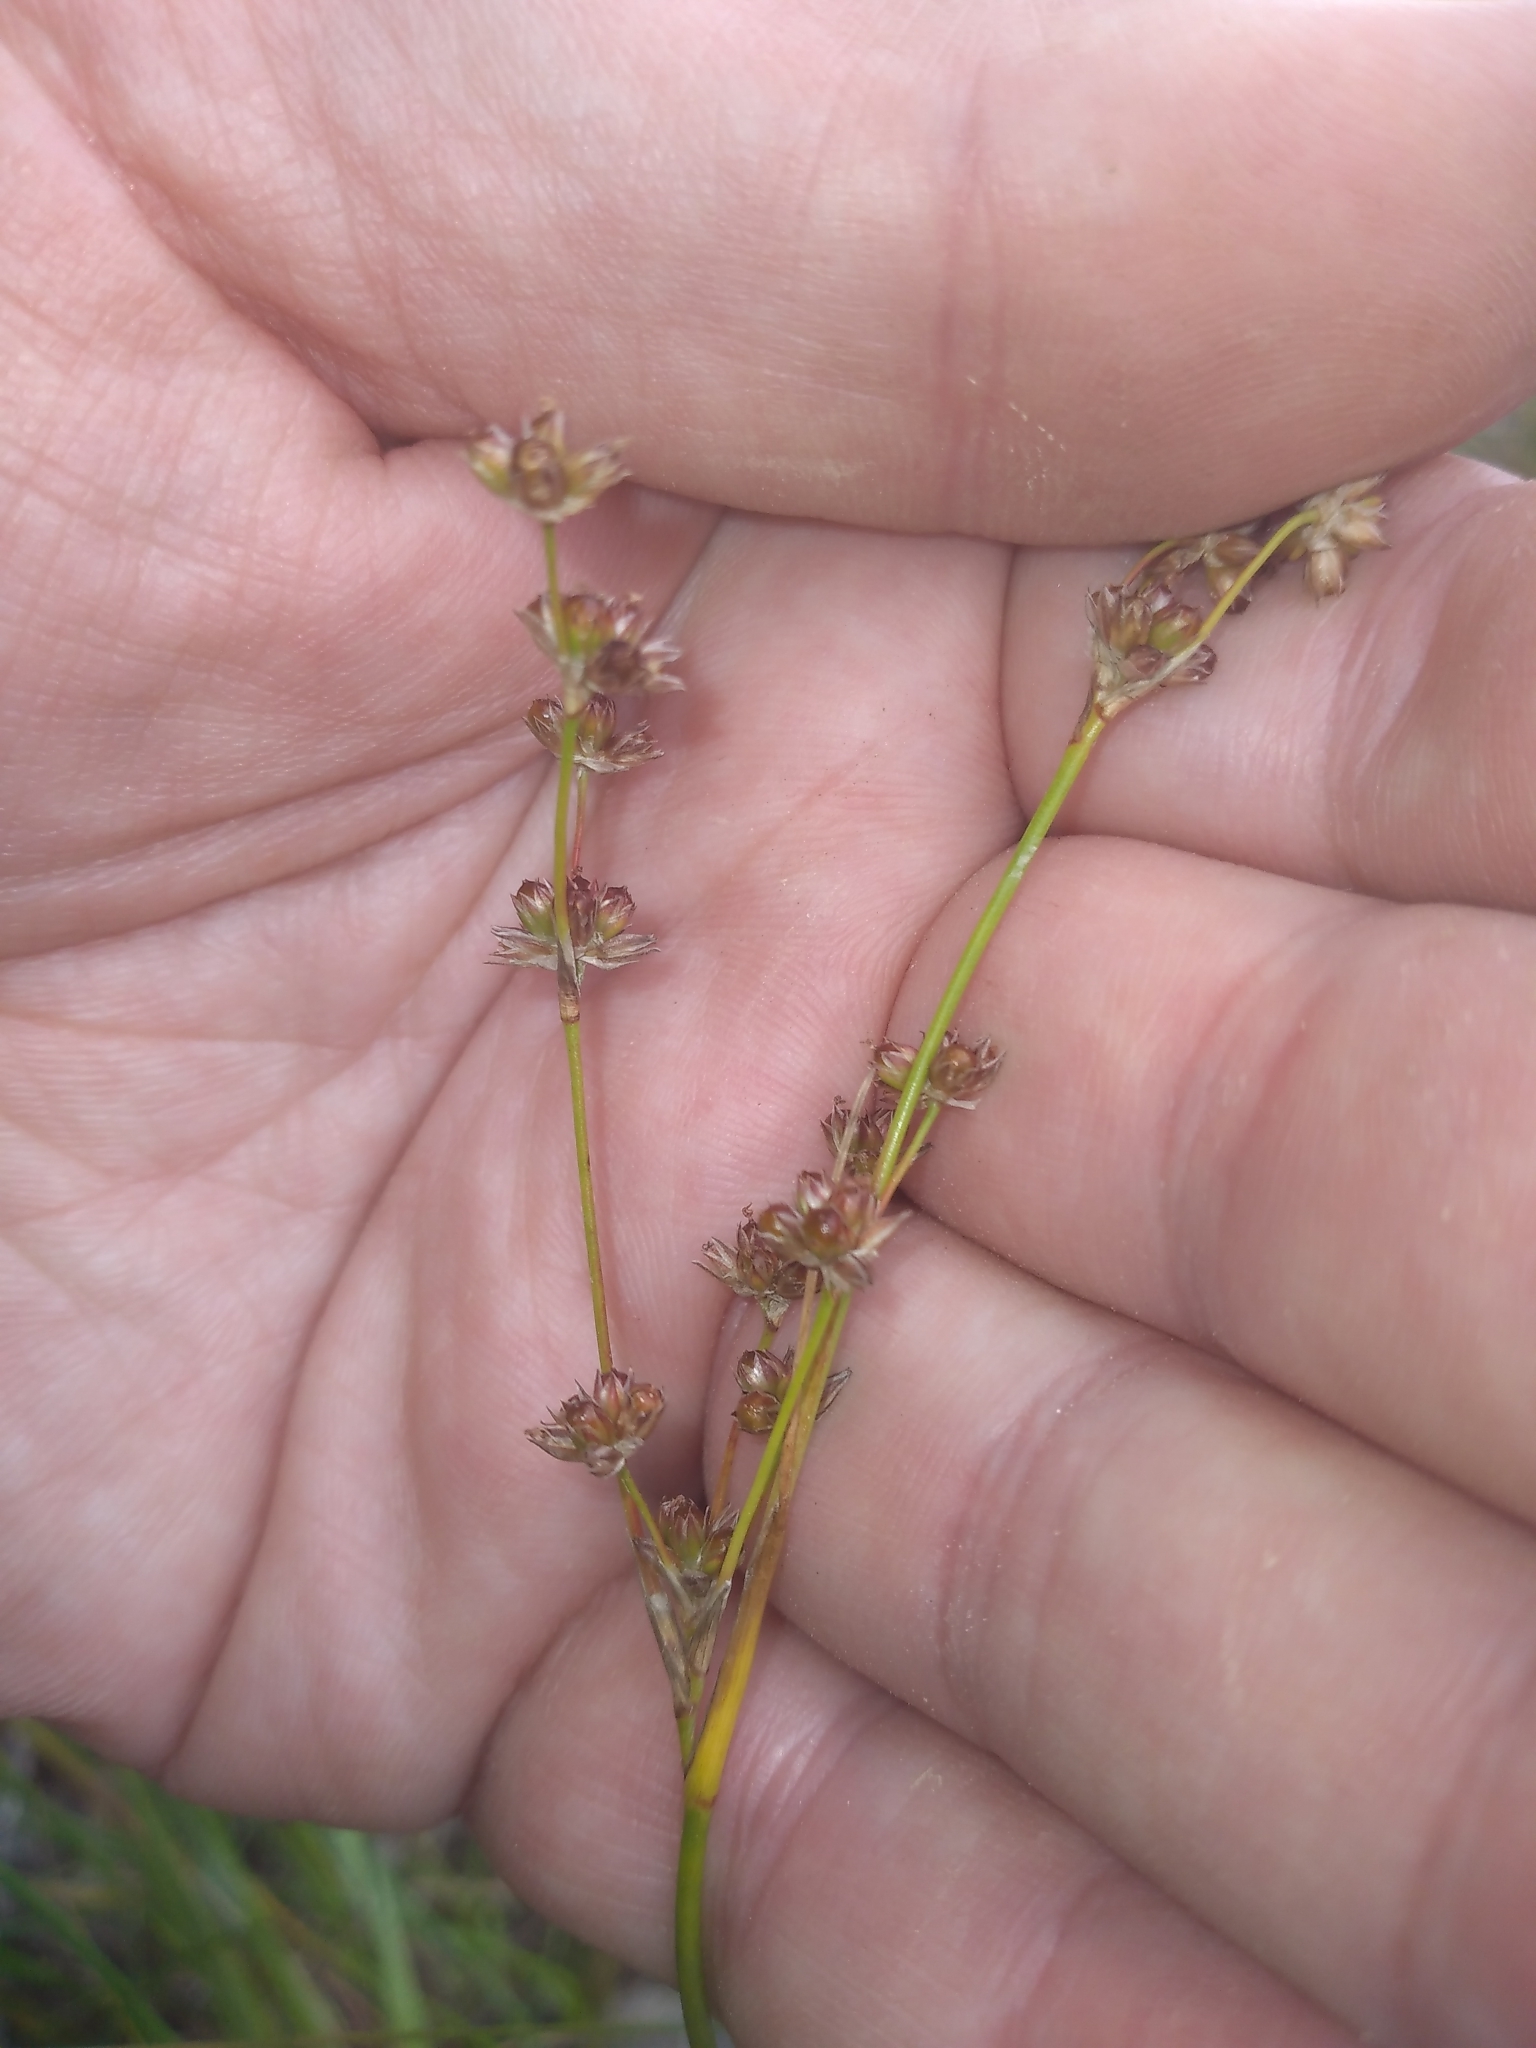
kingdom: Plantae
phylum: Tracheophyta
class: Liliopsida
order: Poales
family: Juncaceae
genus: Juncus
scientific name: Juncus microcephalus
